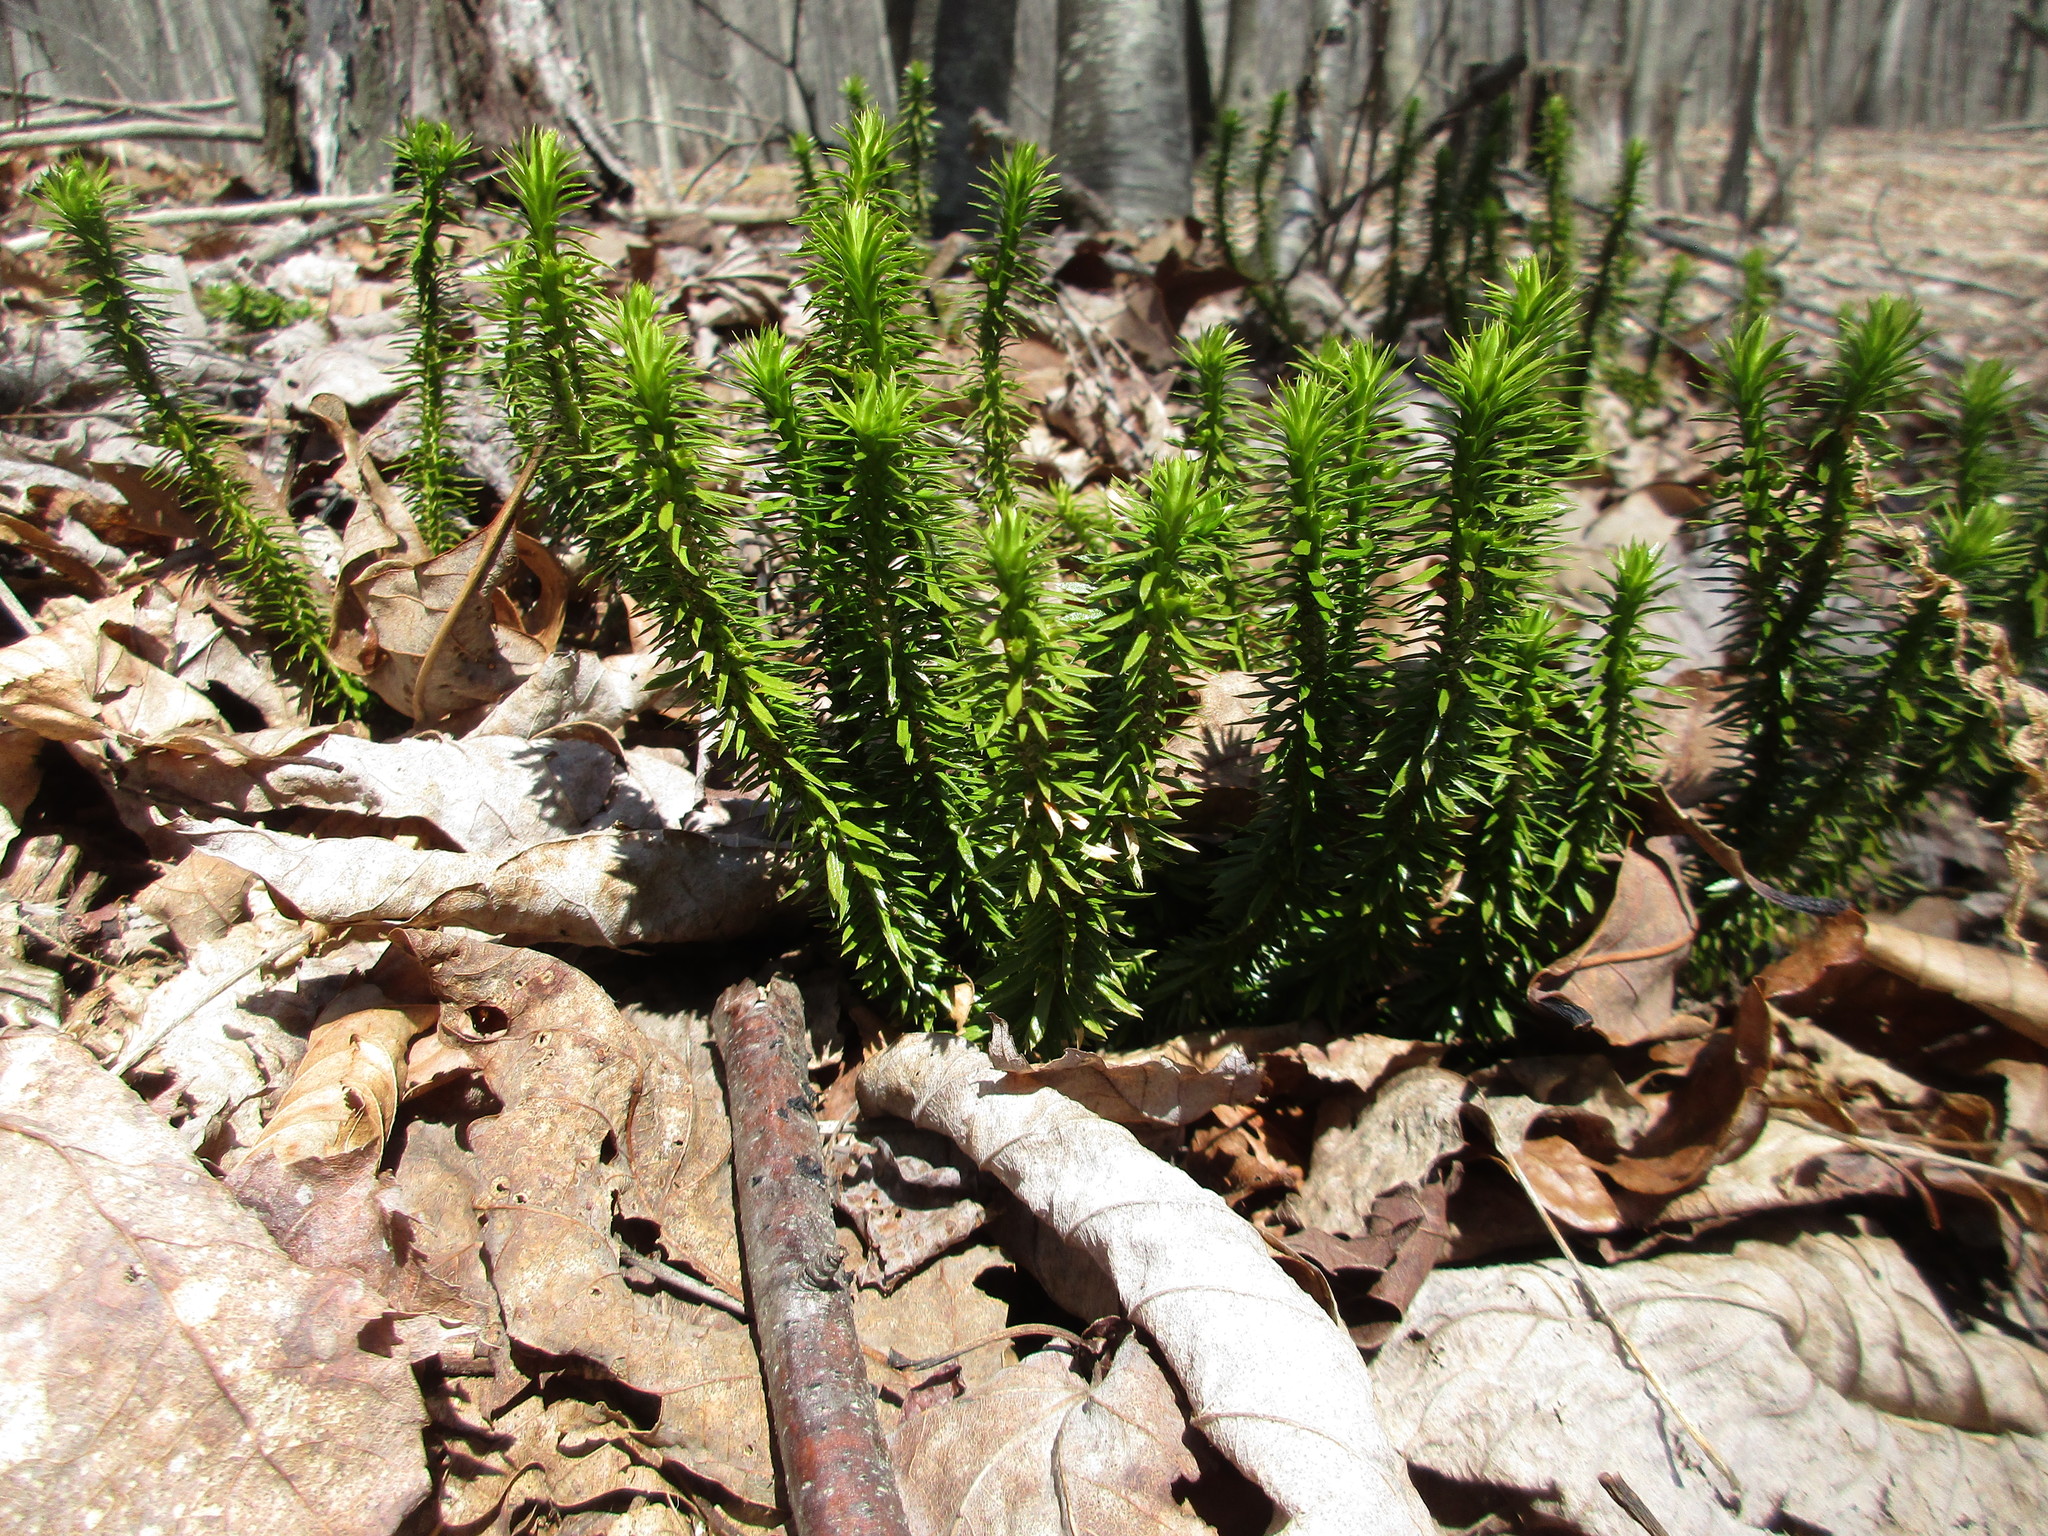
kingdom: Plantae
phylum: Tracheophyta
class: Lycopodiopsida
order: Lycopodiales
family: Lycopodiaceae
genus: Huperzia
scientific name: Huperzia lucidula
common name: Shining clubmoss
